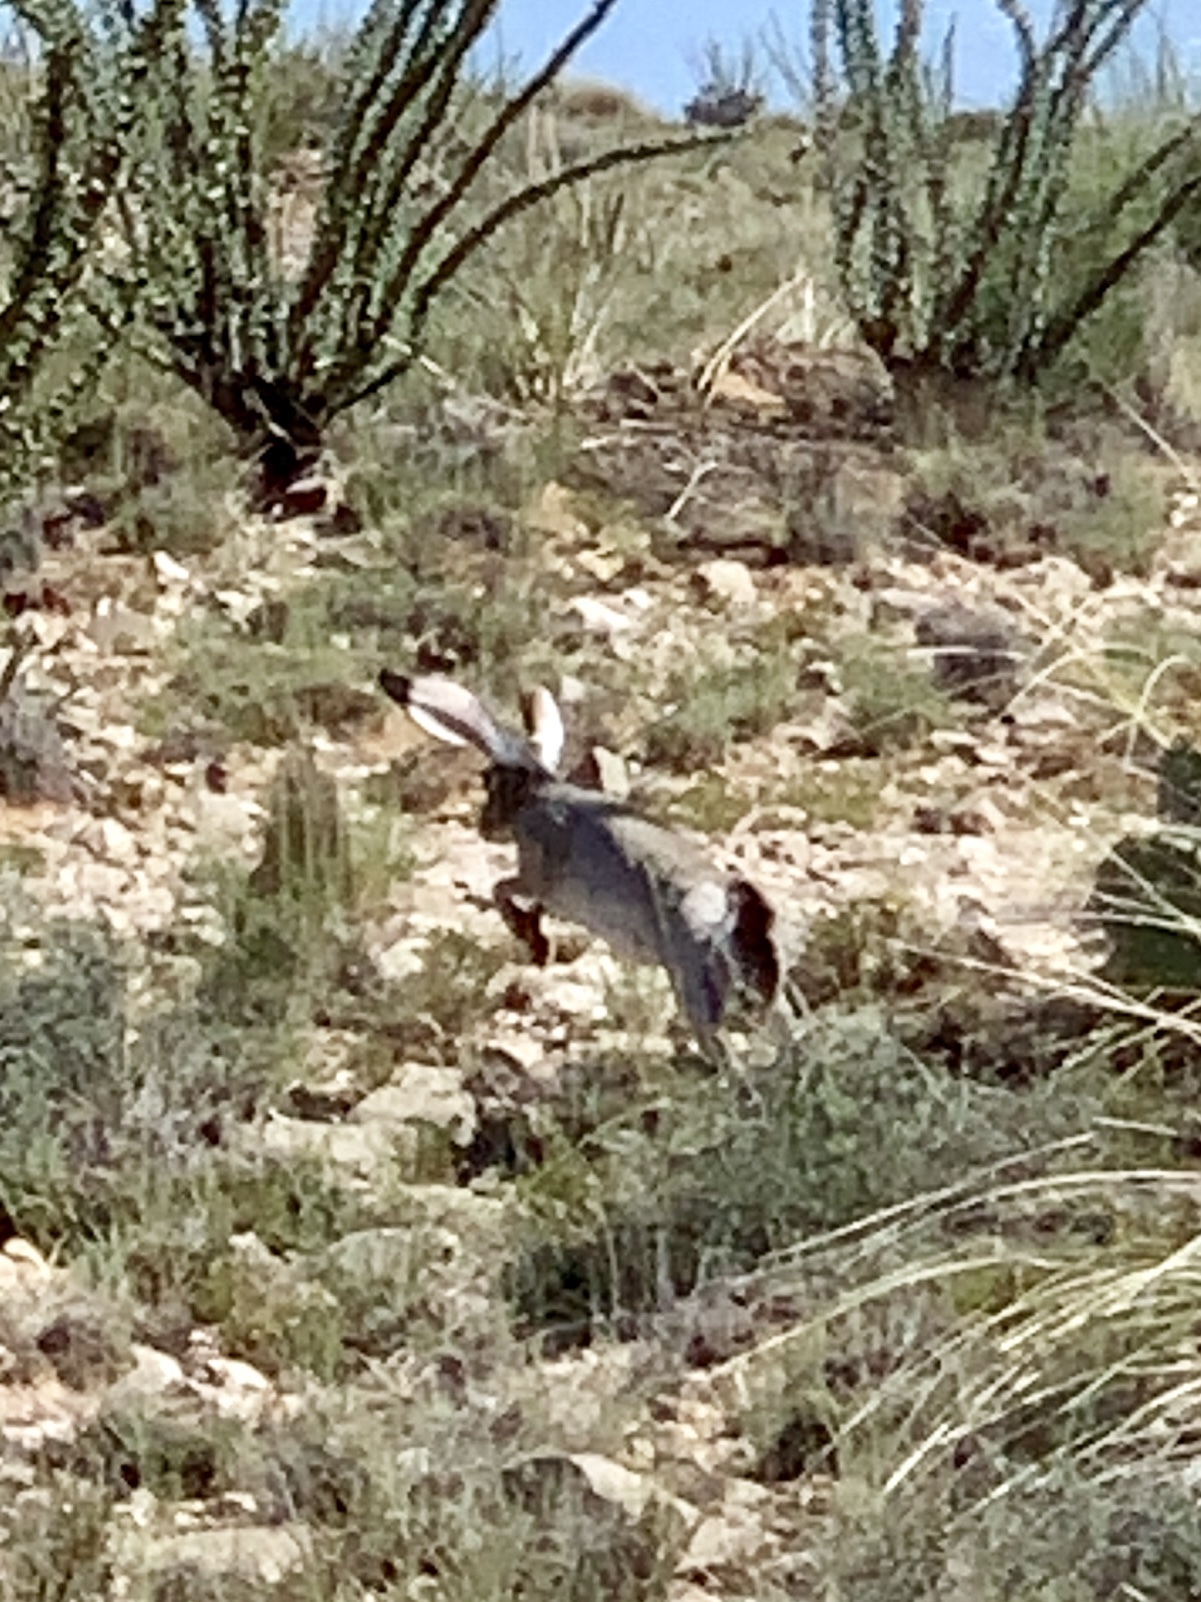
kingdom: Animalia
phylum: Chordata
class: Mammalia
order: Lagomorpha
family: Leporidae
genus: Lepus
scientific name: Lepus californicus
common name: Black-tailed jackrabbit
